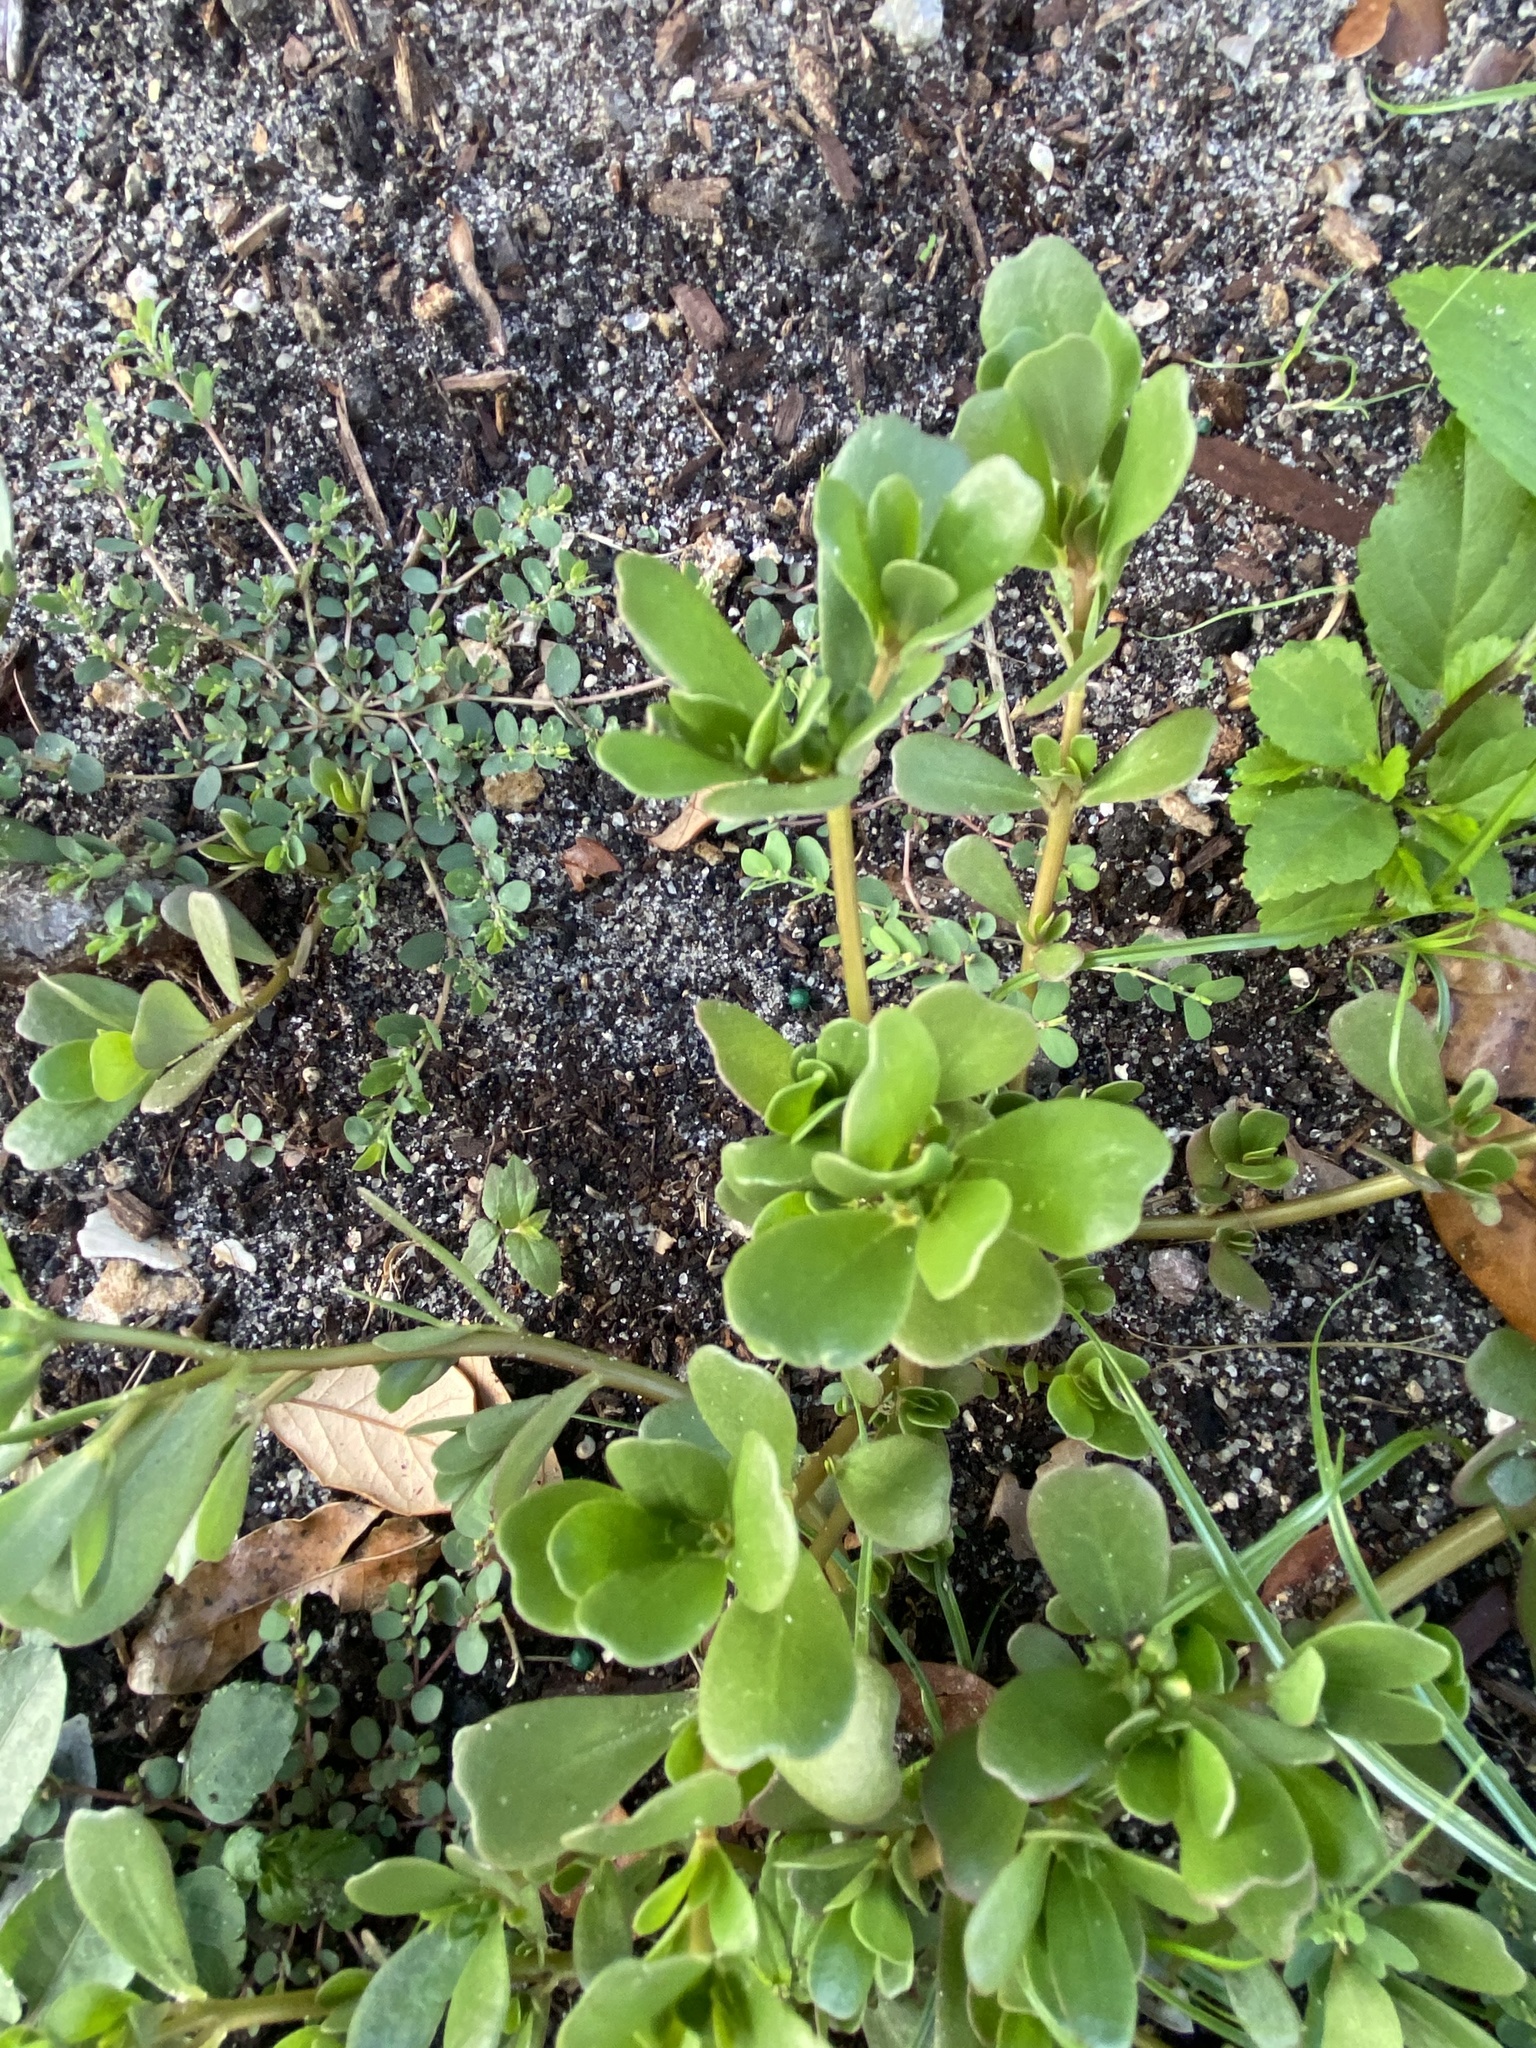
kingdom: Plantae
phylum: Tracheophyta
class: Magnoliopsida
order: Caryophyllales
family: Portulacaceae
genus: Portulaca
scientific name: Portulaca oleracea
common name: Common purslane
